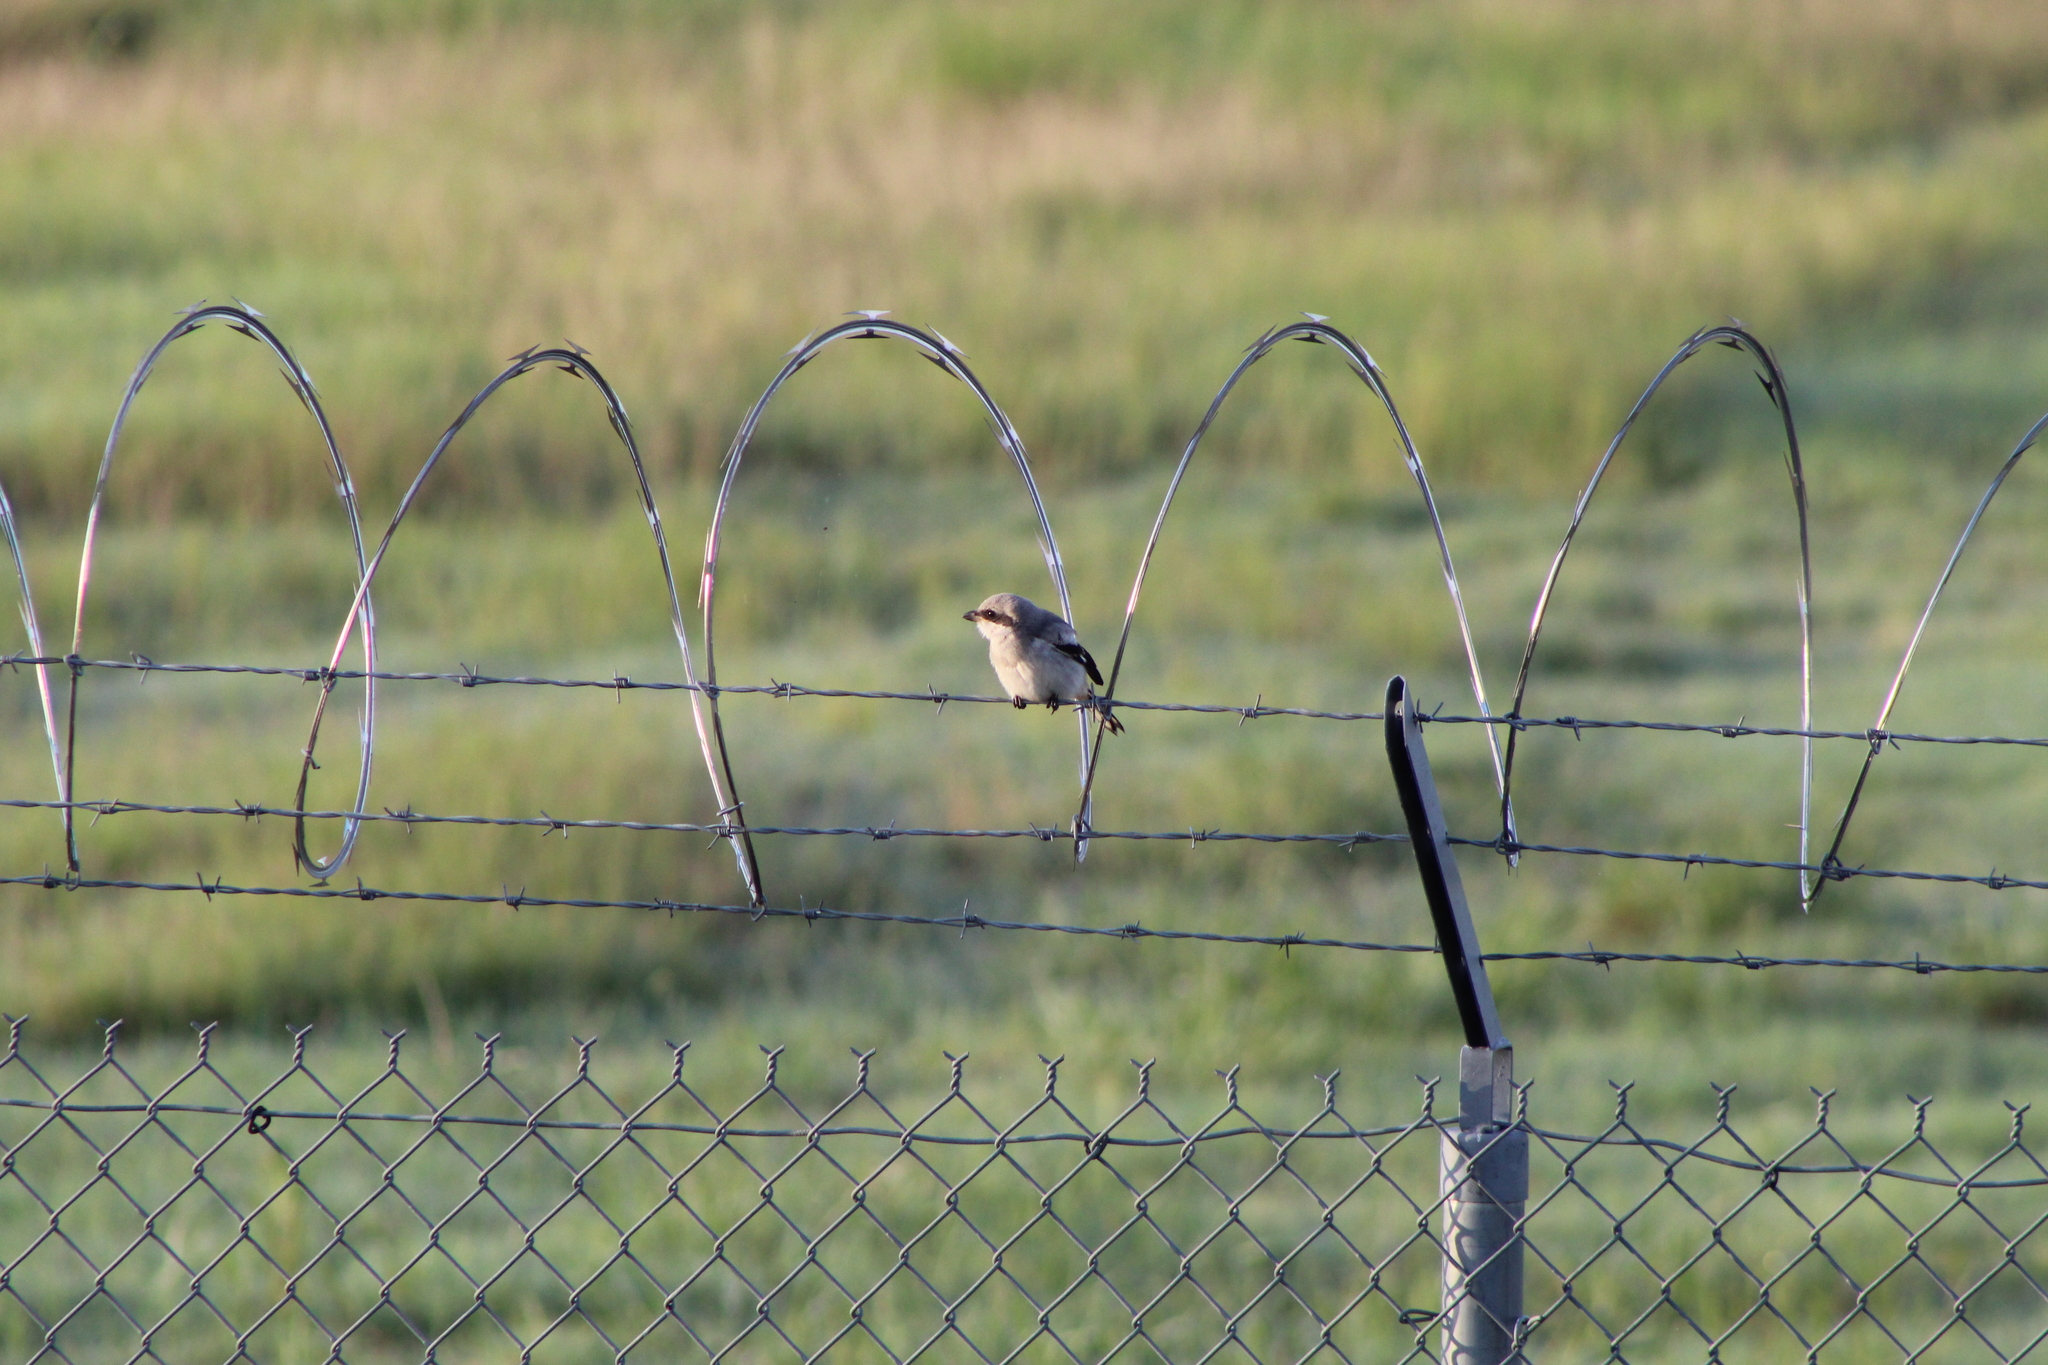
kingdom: Animalia
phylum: Chordata
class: Aves
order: Passeriformes
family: Laniidae
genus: Lanius
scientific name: Lanius ludovicianus
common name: Loggerhead shrike
